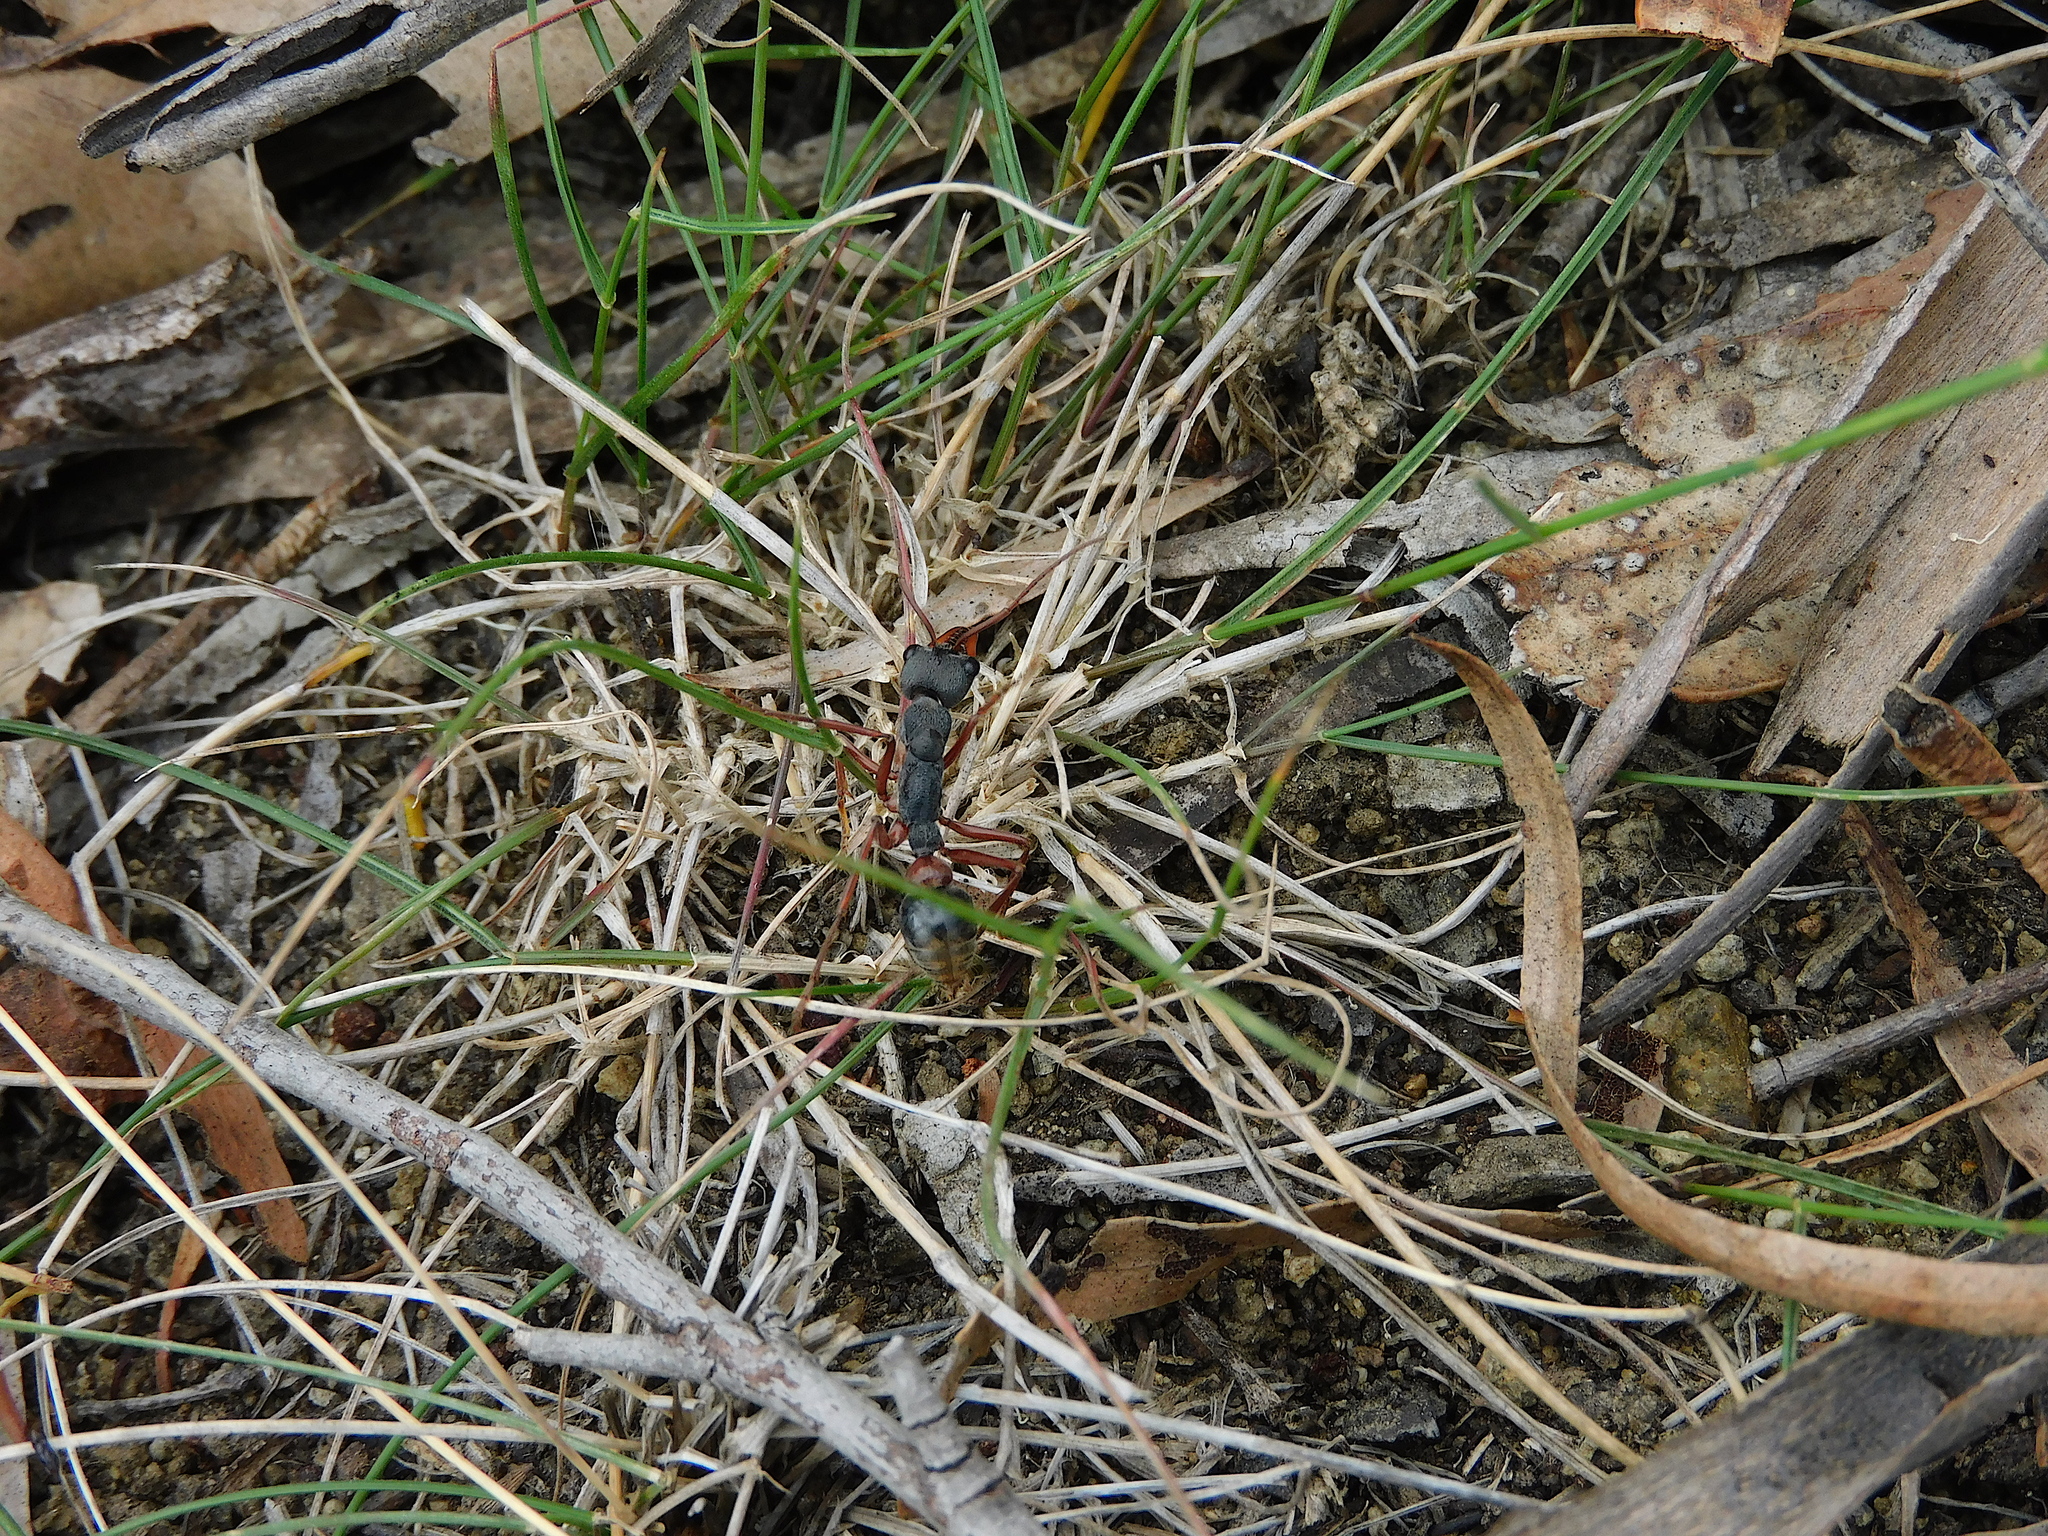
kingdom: Animalia
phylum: Arthropoda
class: Insecta
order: Hymenoptera
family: Formicidae
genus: Myrmecia
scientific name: Myrmecia esuriens
